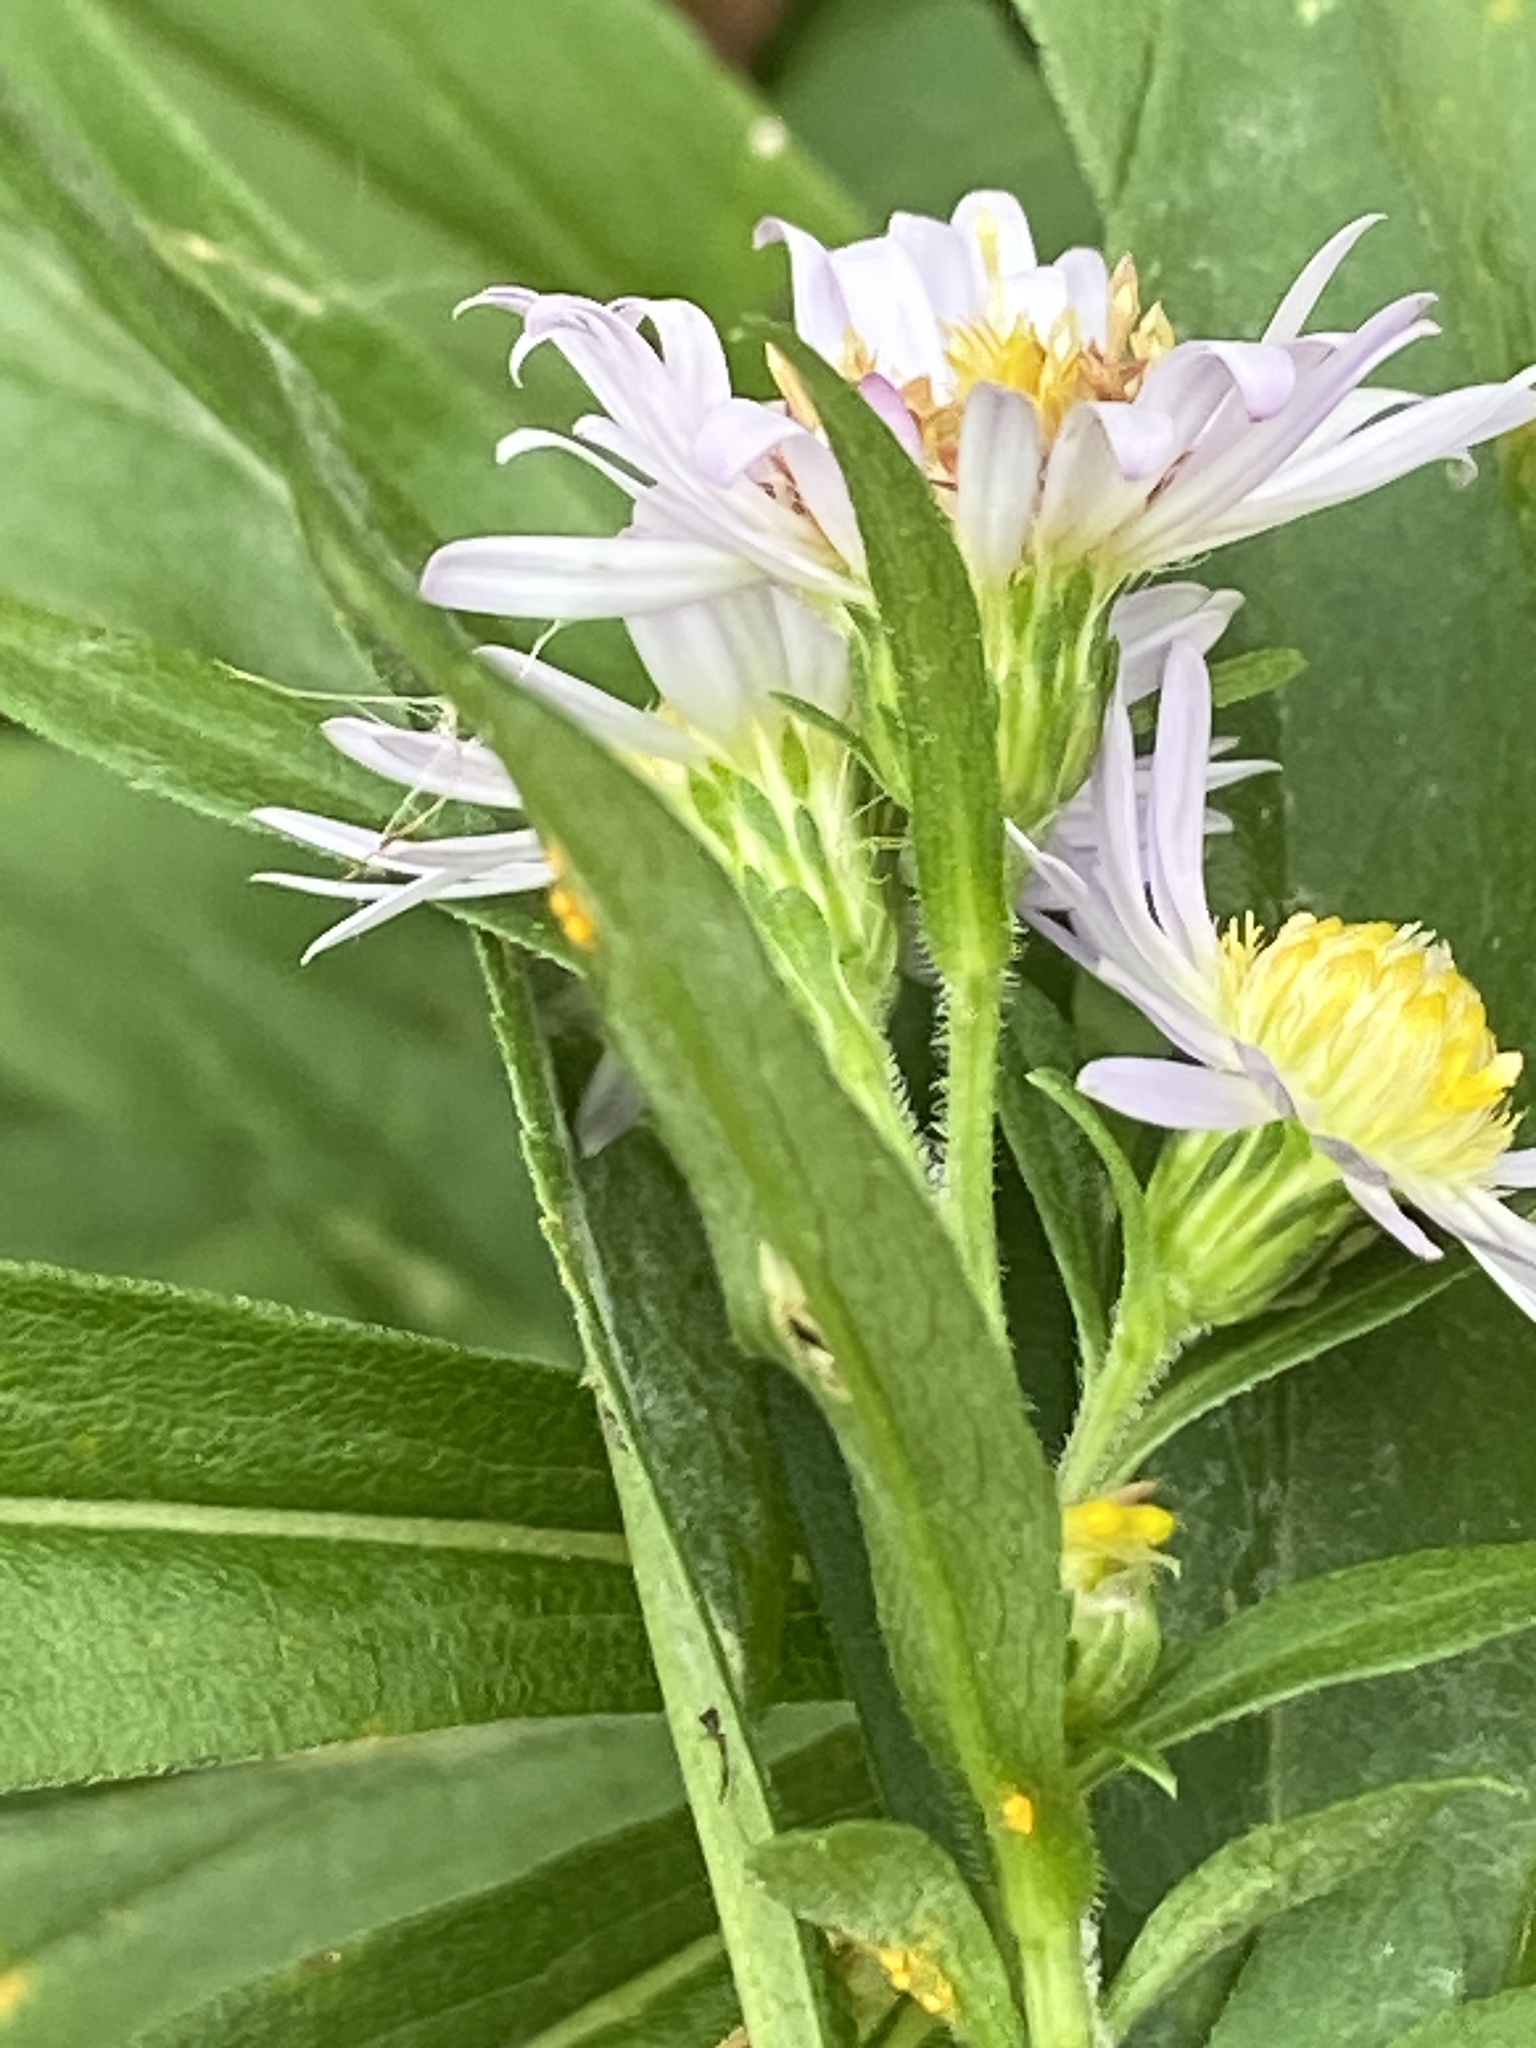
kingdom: Plantae
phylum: Tracheophyta
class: Magnoliopsida
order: Asterales
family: Asteraceae
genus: Symphyotrichum
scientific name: Symphyotrichum lanceolatum
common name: Panicled aster
